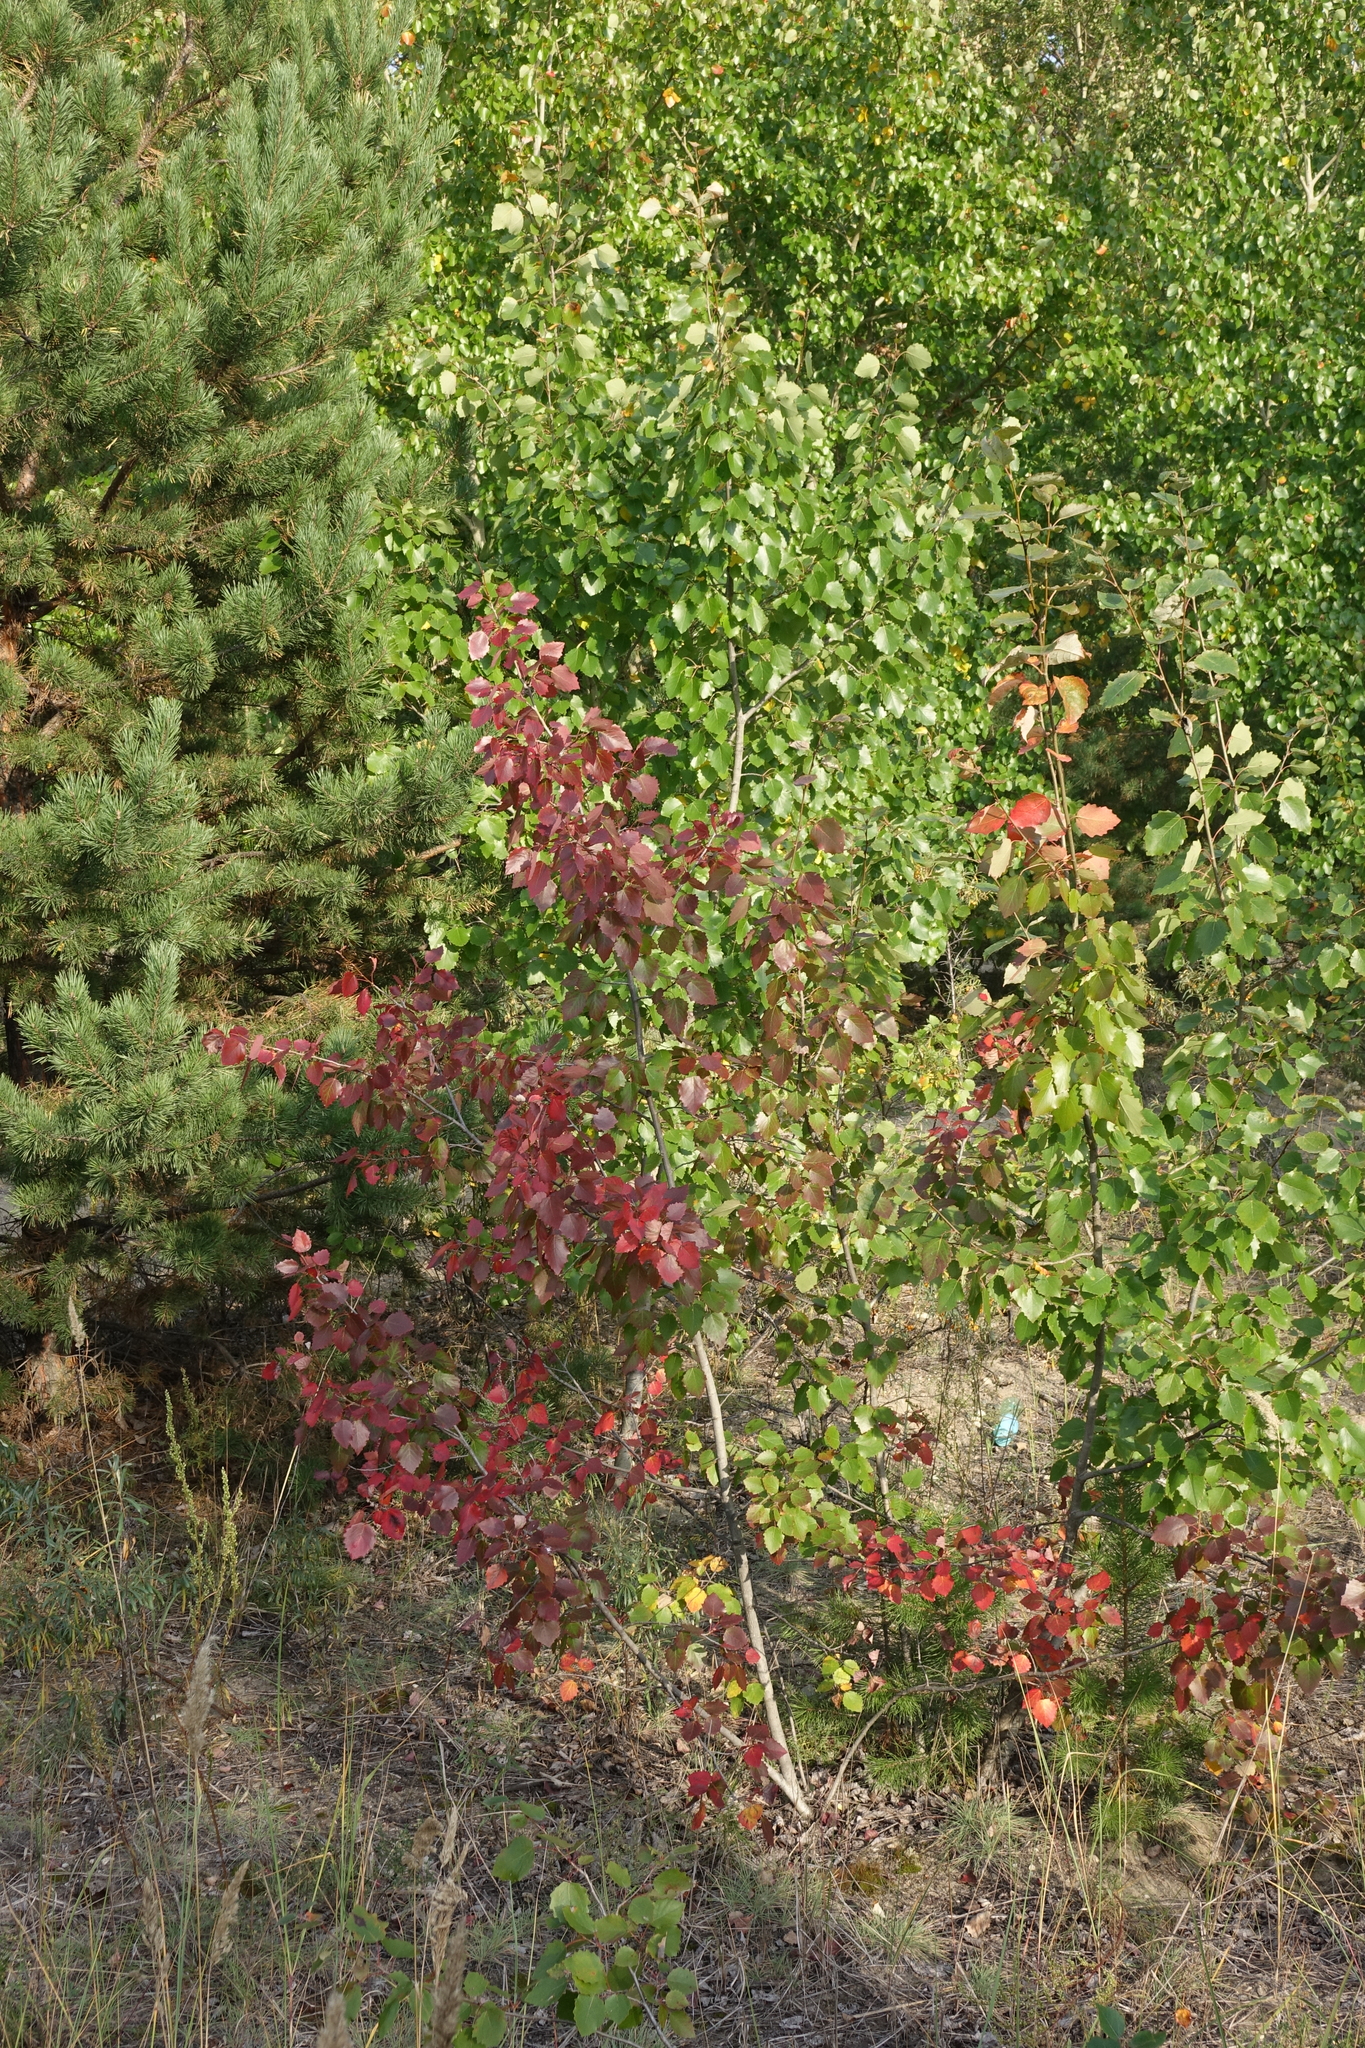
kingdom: Plantae
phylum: Tracheophyta
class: Magnoliopsida
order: Malpighiales
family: Salicaceae
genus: Populus
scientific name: Populus tremula
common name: European aspen
